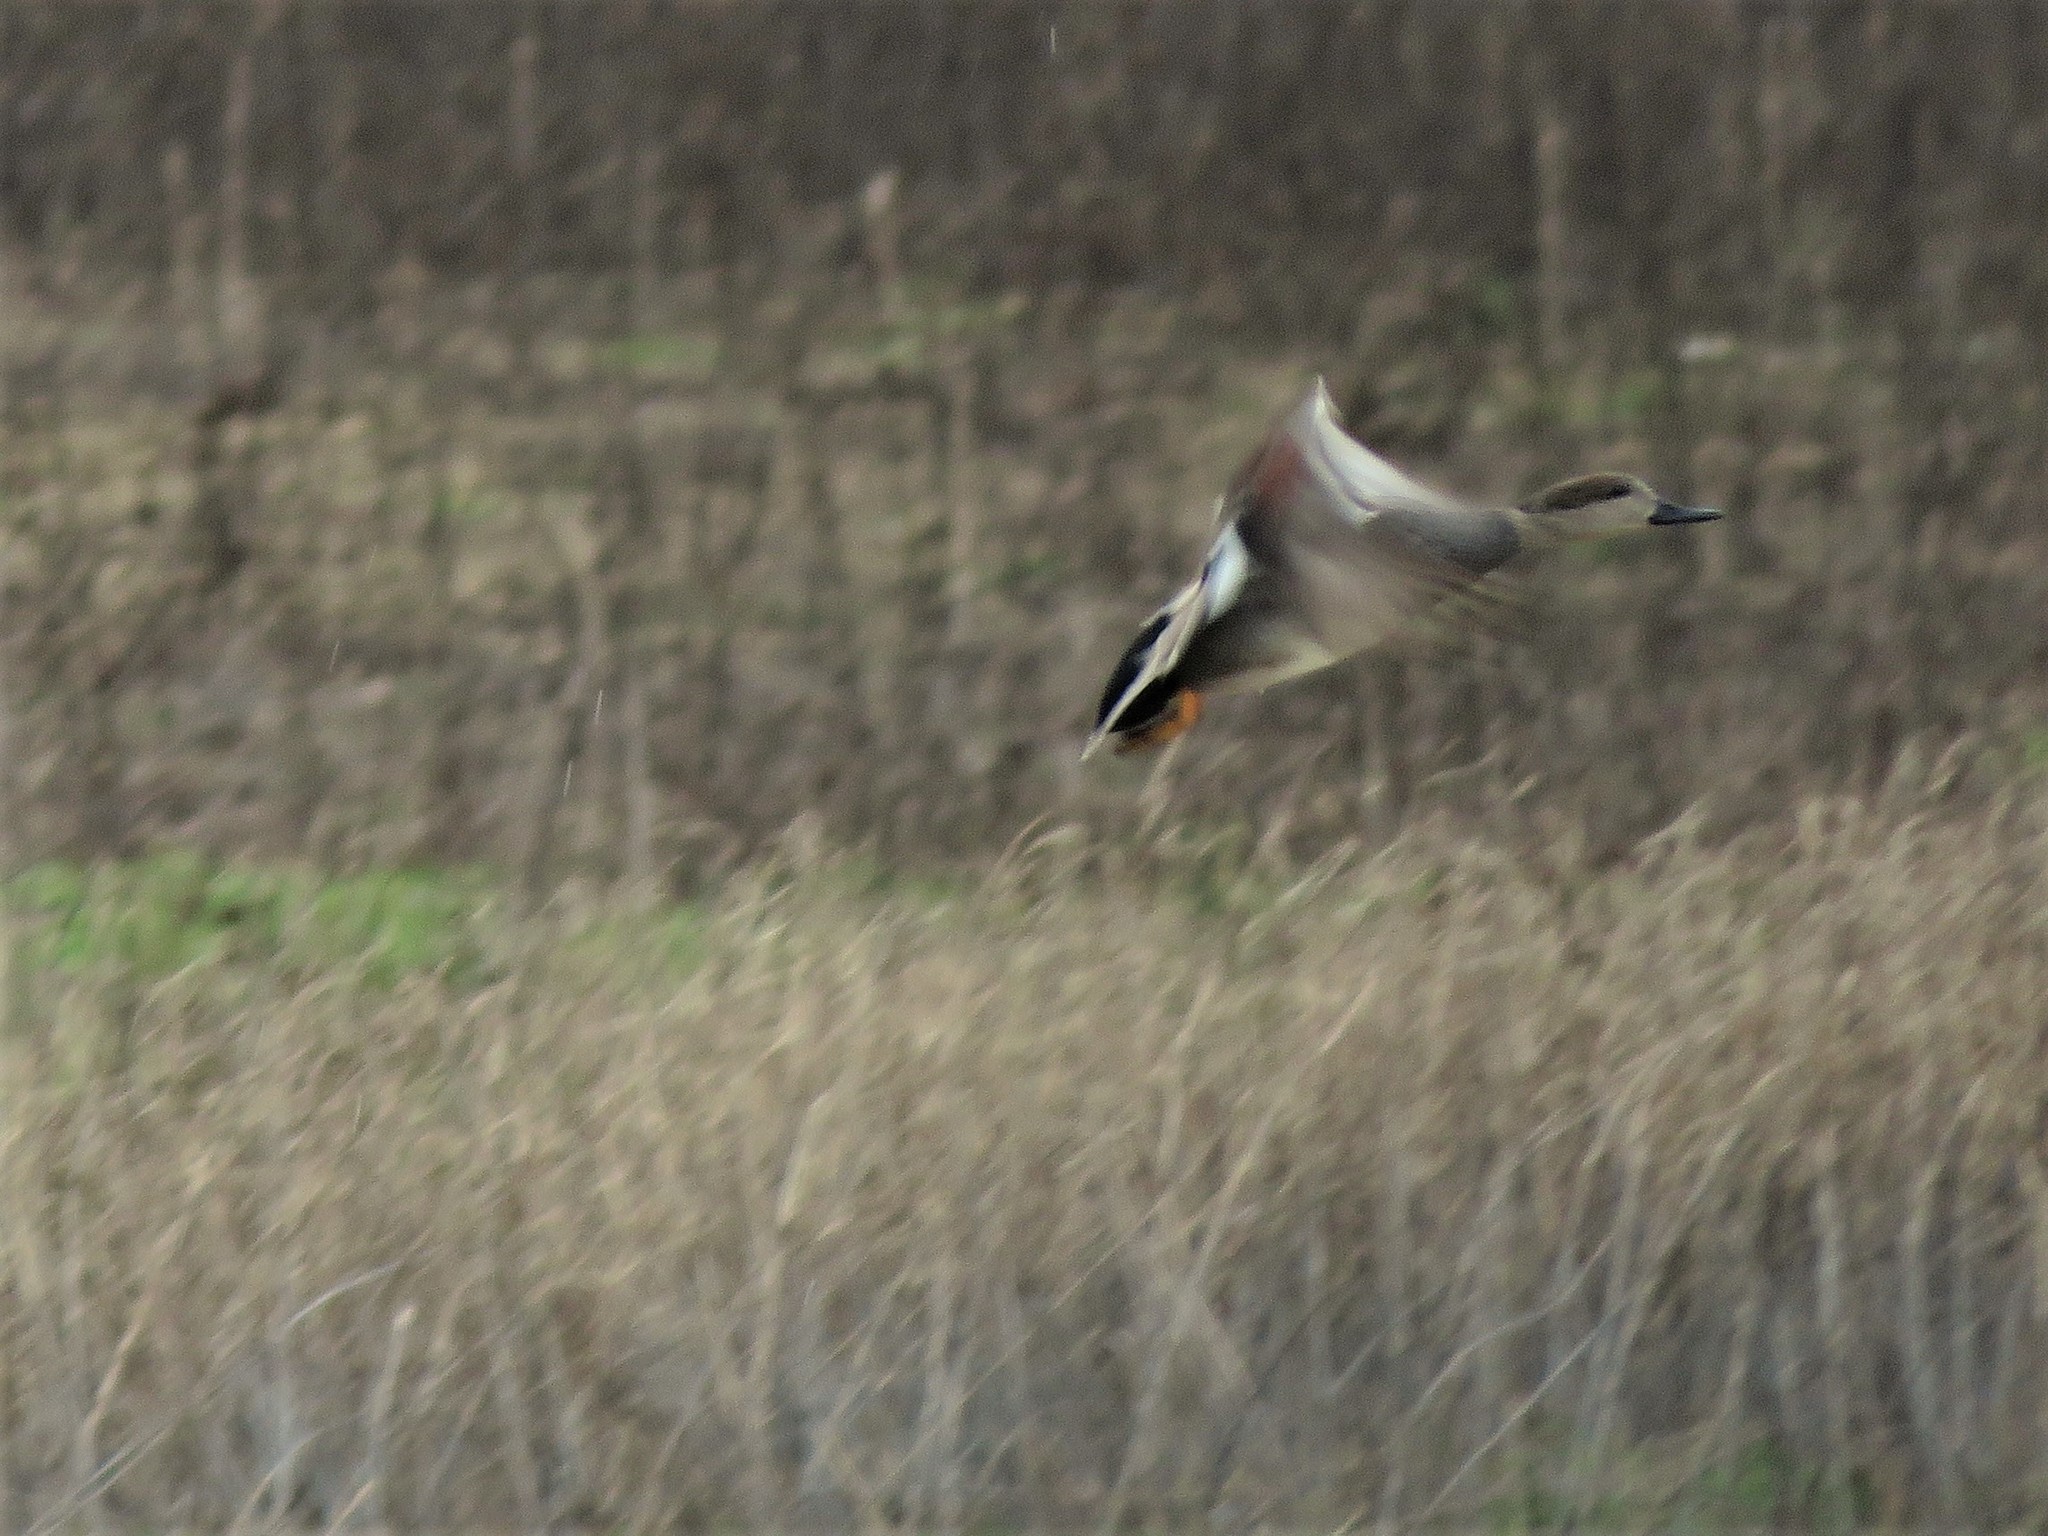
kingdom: Animalia
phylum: Chordata
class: Aves
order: Anseriformes
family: Anatidae
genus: Mareca
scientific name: Mareca strepera
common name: Gadwall
